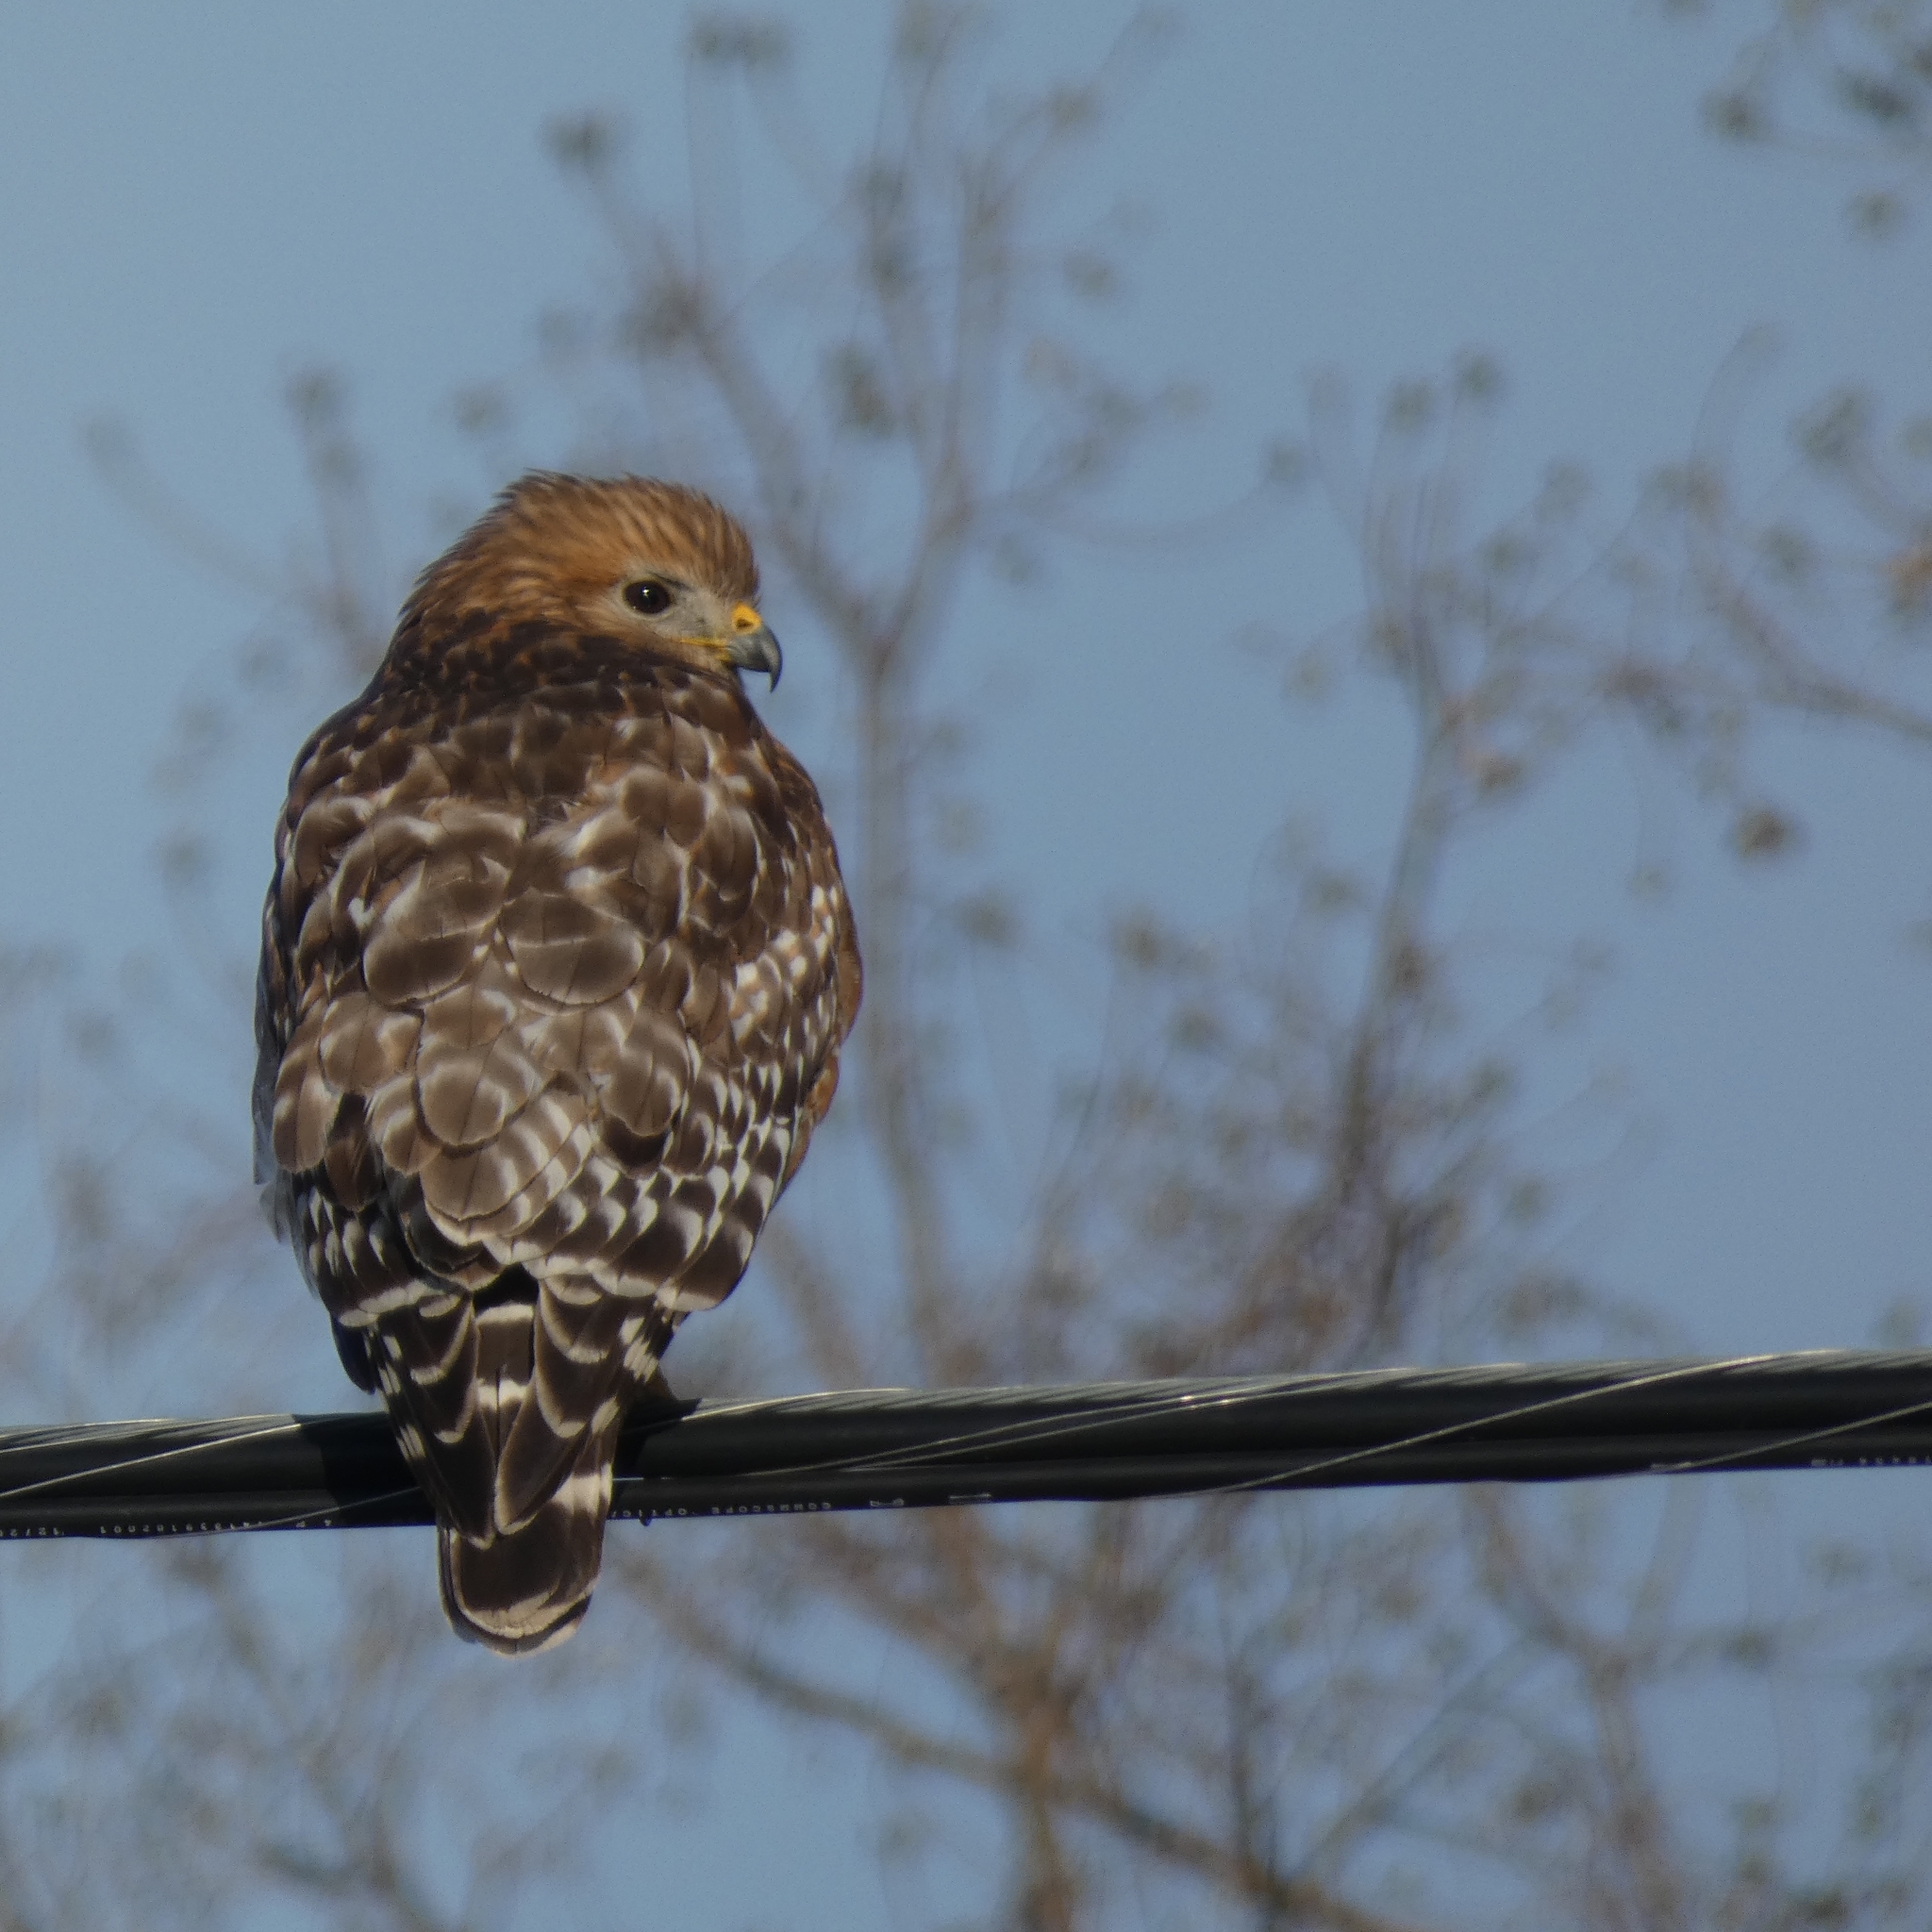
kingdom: Animalia
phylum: Chordata
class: Aves
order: Accipitriformes
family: Accipitridae
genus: Buteo
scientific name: Buteo lineatus
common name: Red-shouldered hawk
